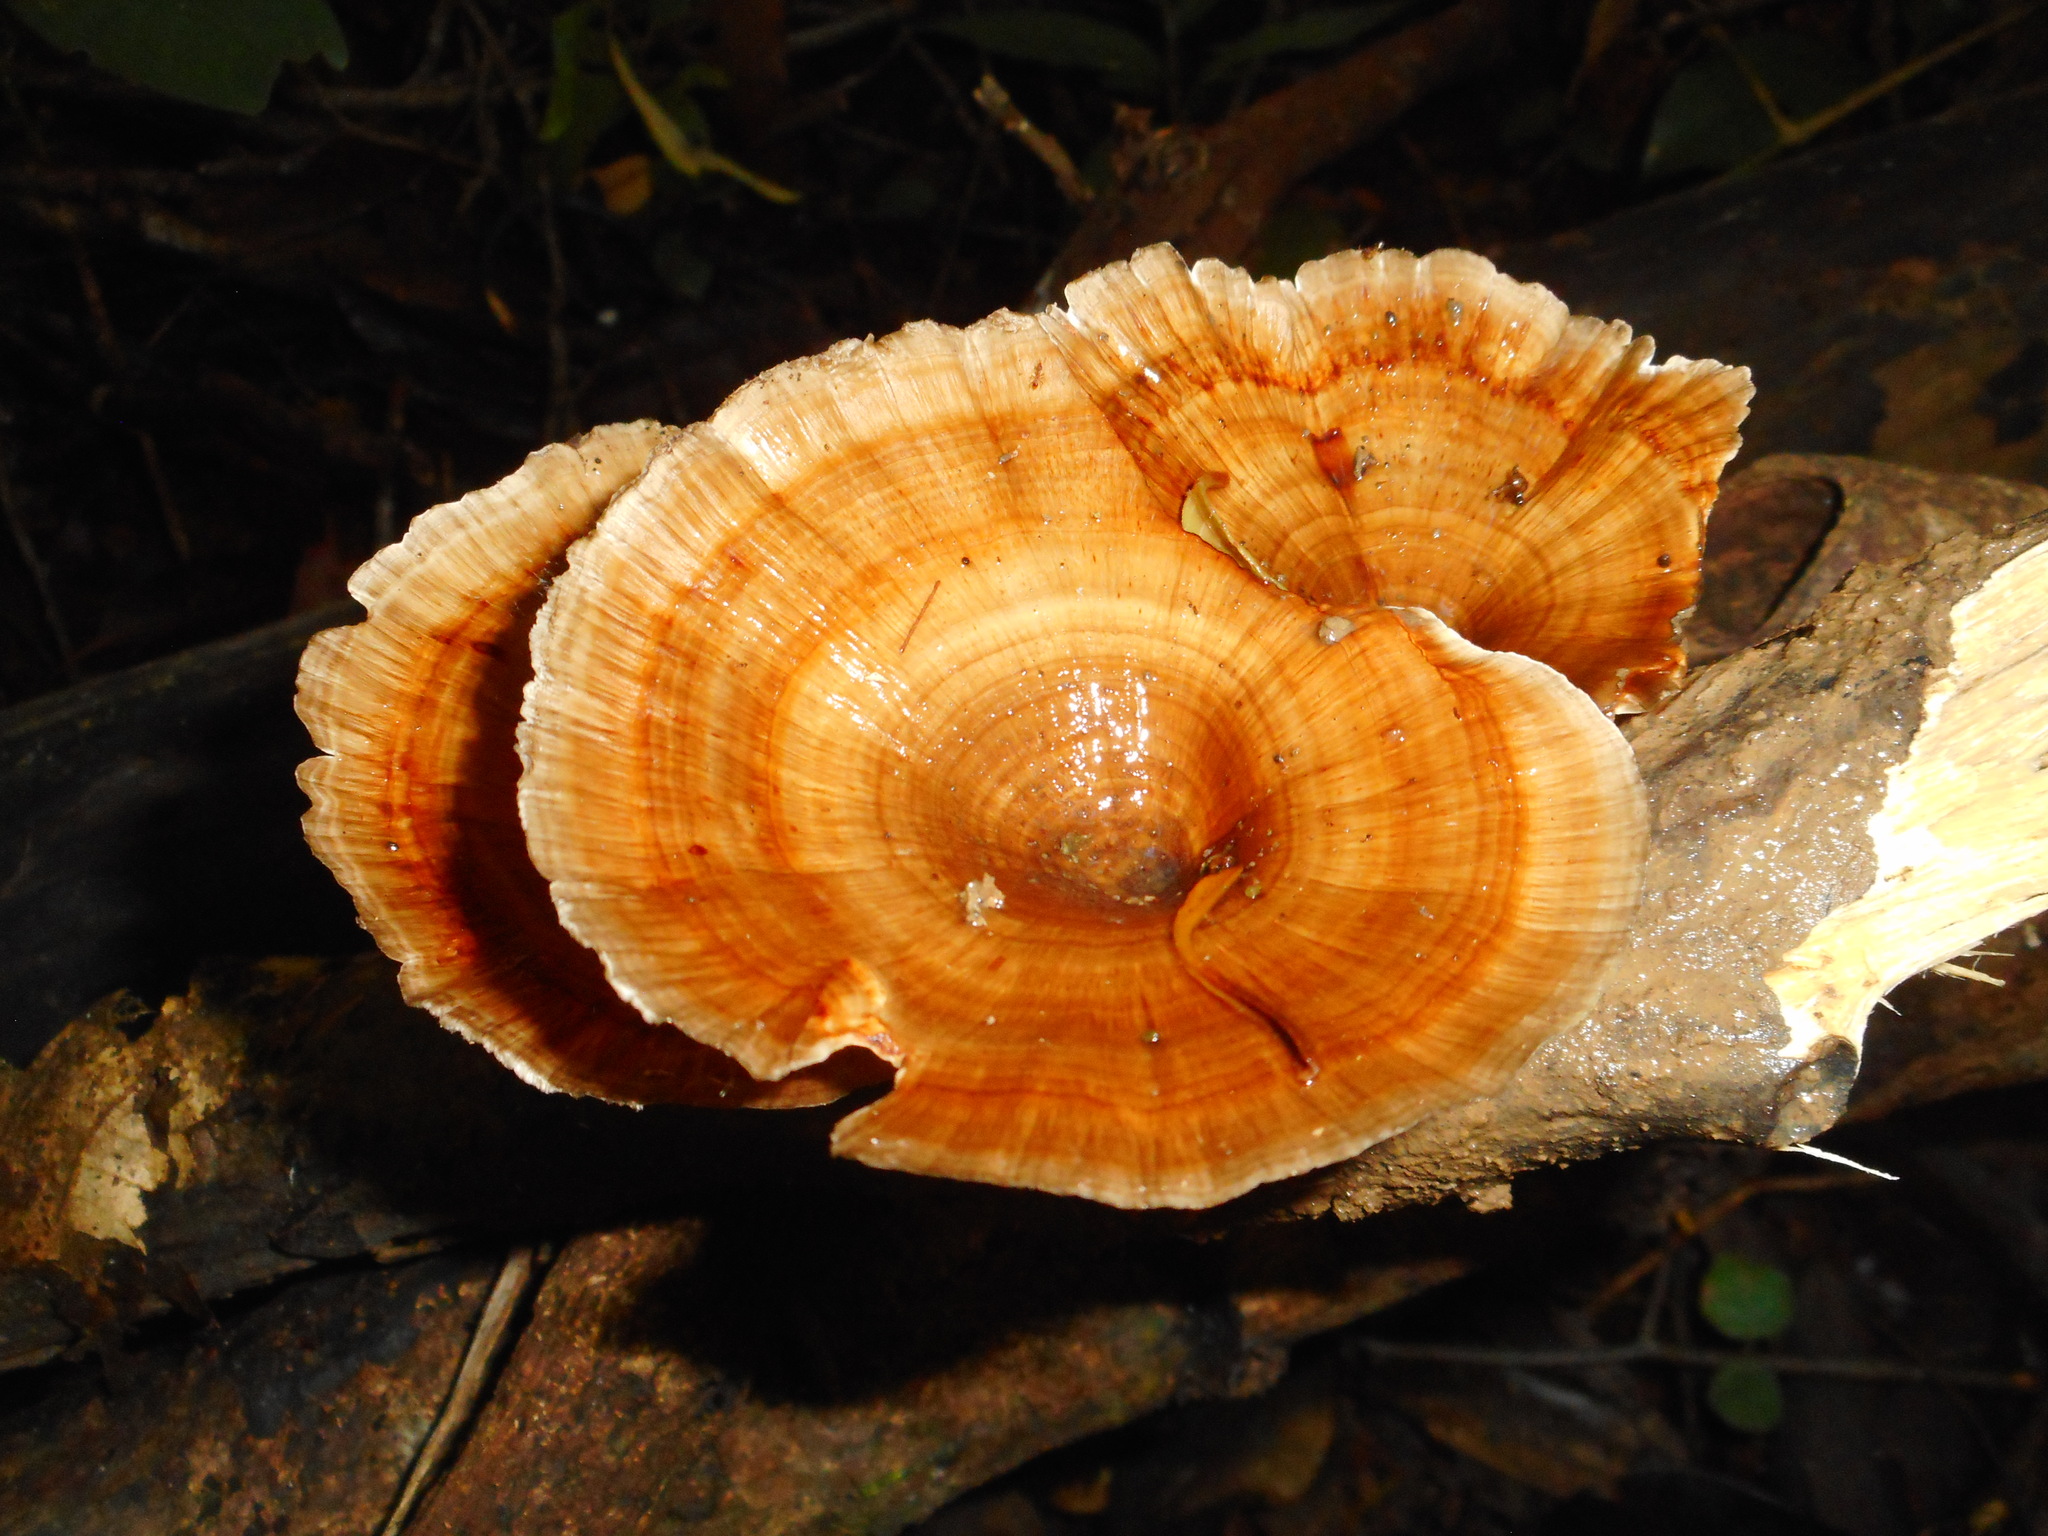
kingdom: Fungi
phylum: Basidiomycota
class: Agaricomycetes
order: Polyporales
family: Polyporaceae
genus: Microporus
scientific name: Microporus xanthopus
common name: Yellow-stemmed micropore
